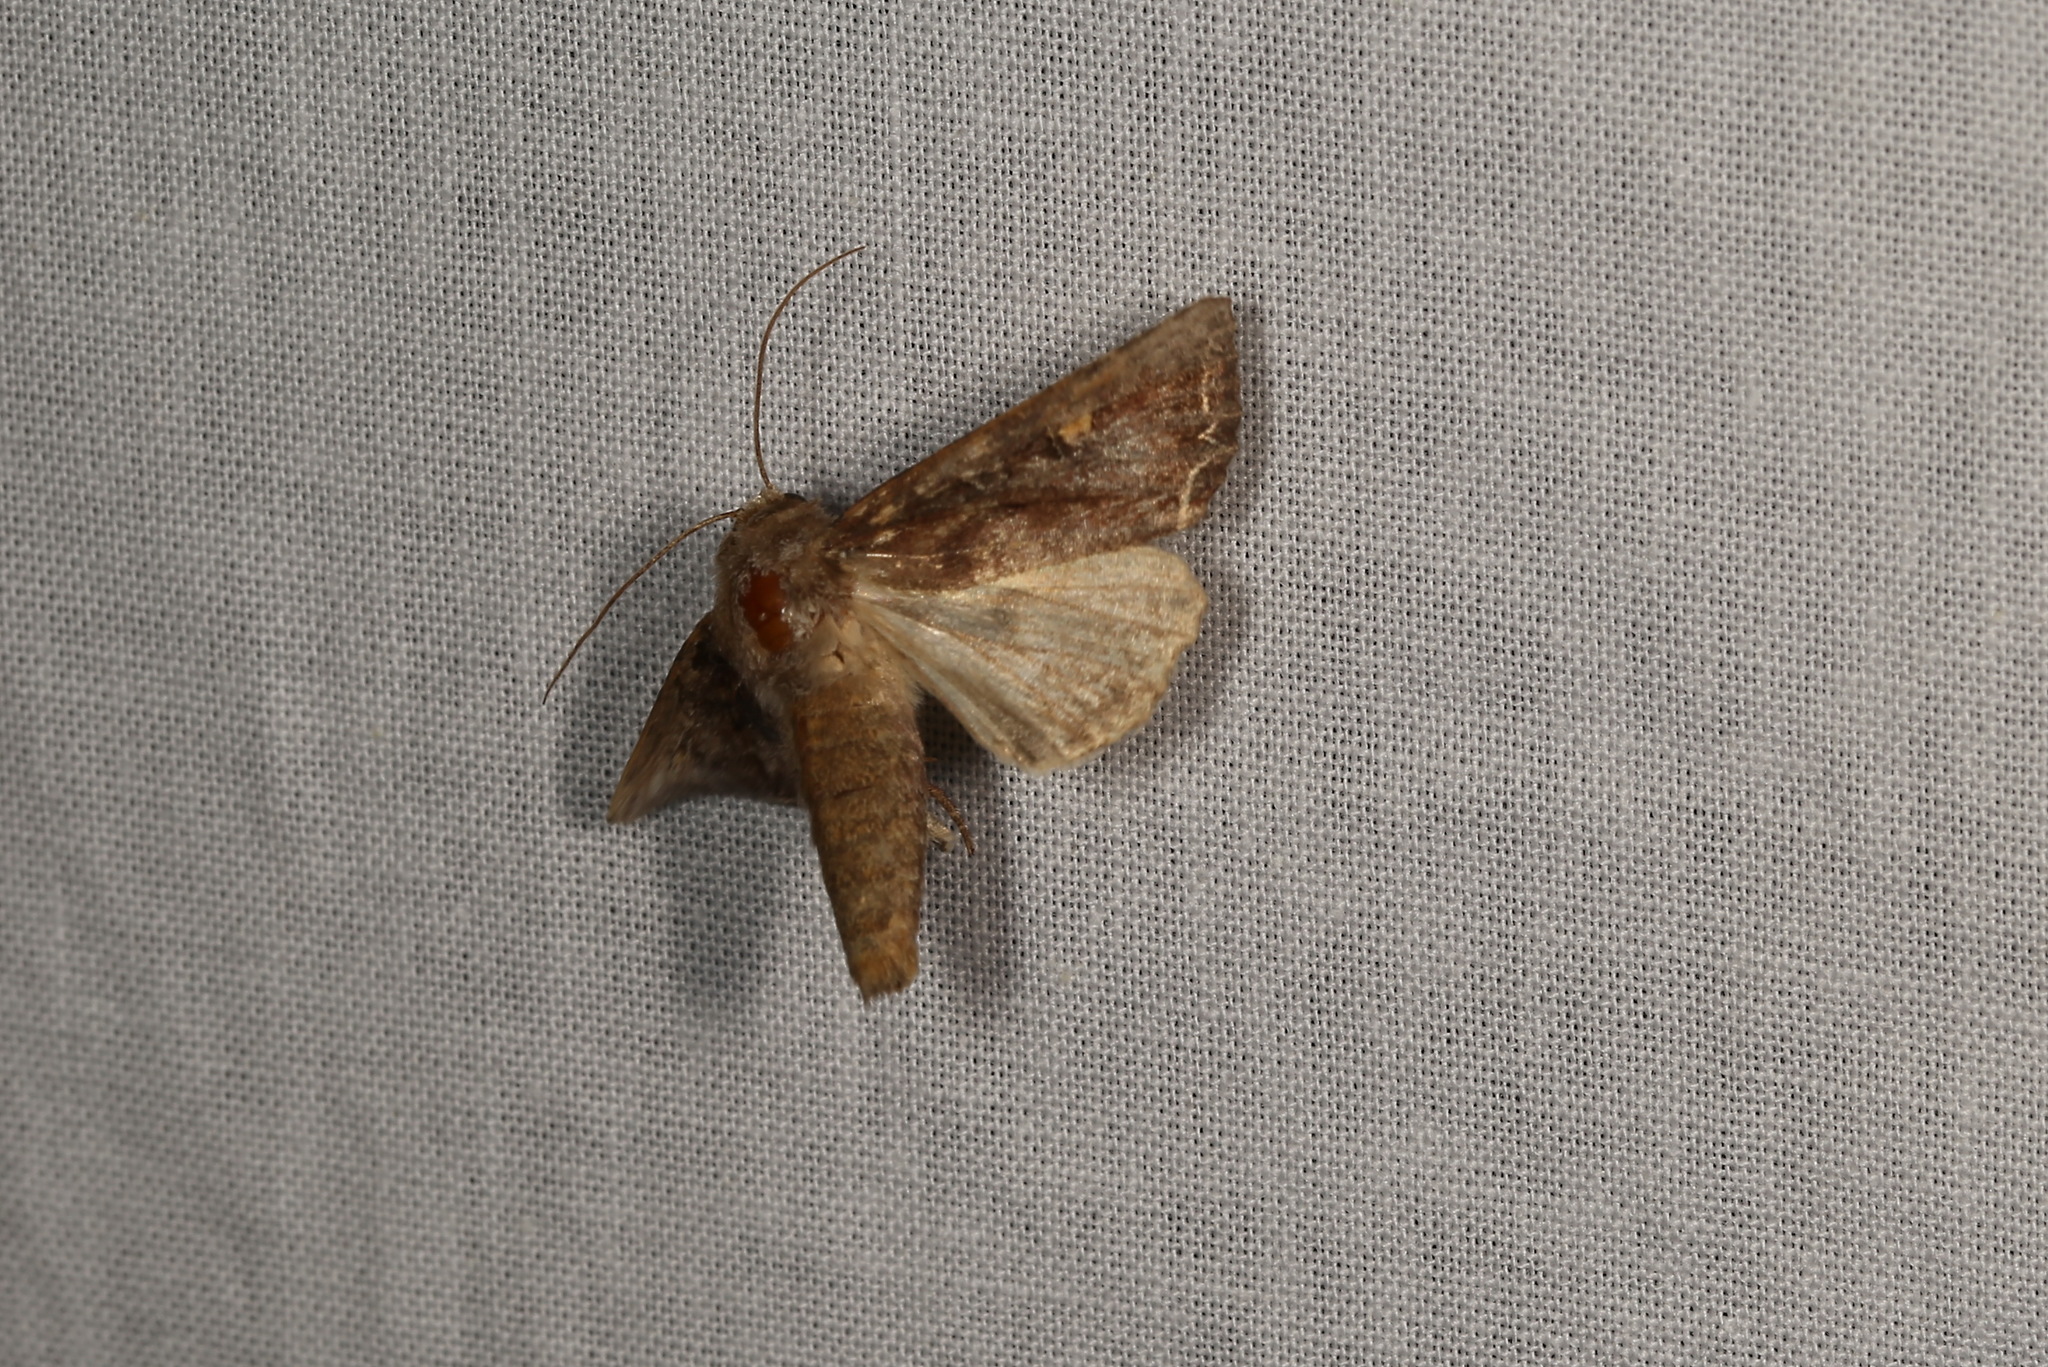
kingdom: Animalia
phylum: Arthropoda
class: Insecta
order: Lepidoptera
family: Noctuidae
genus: Lacanobia
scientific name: Lacanobia oleracea
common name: Bright-line brown-eye
